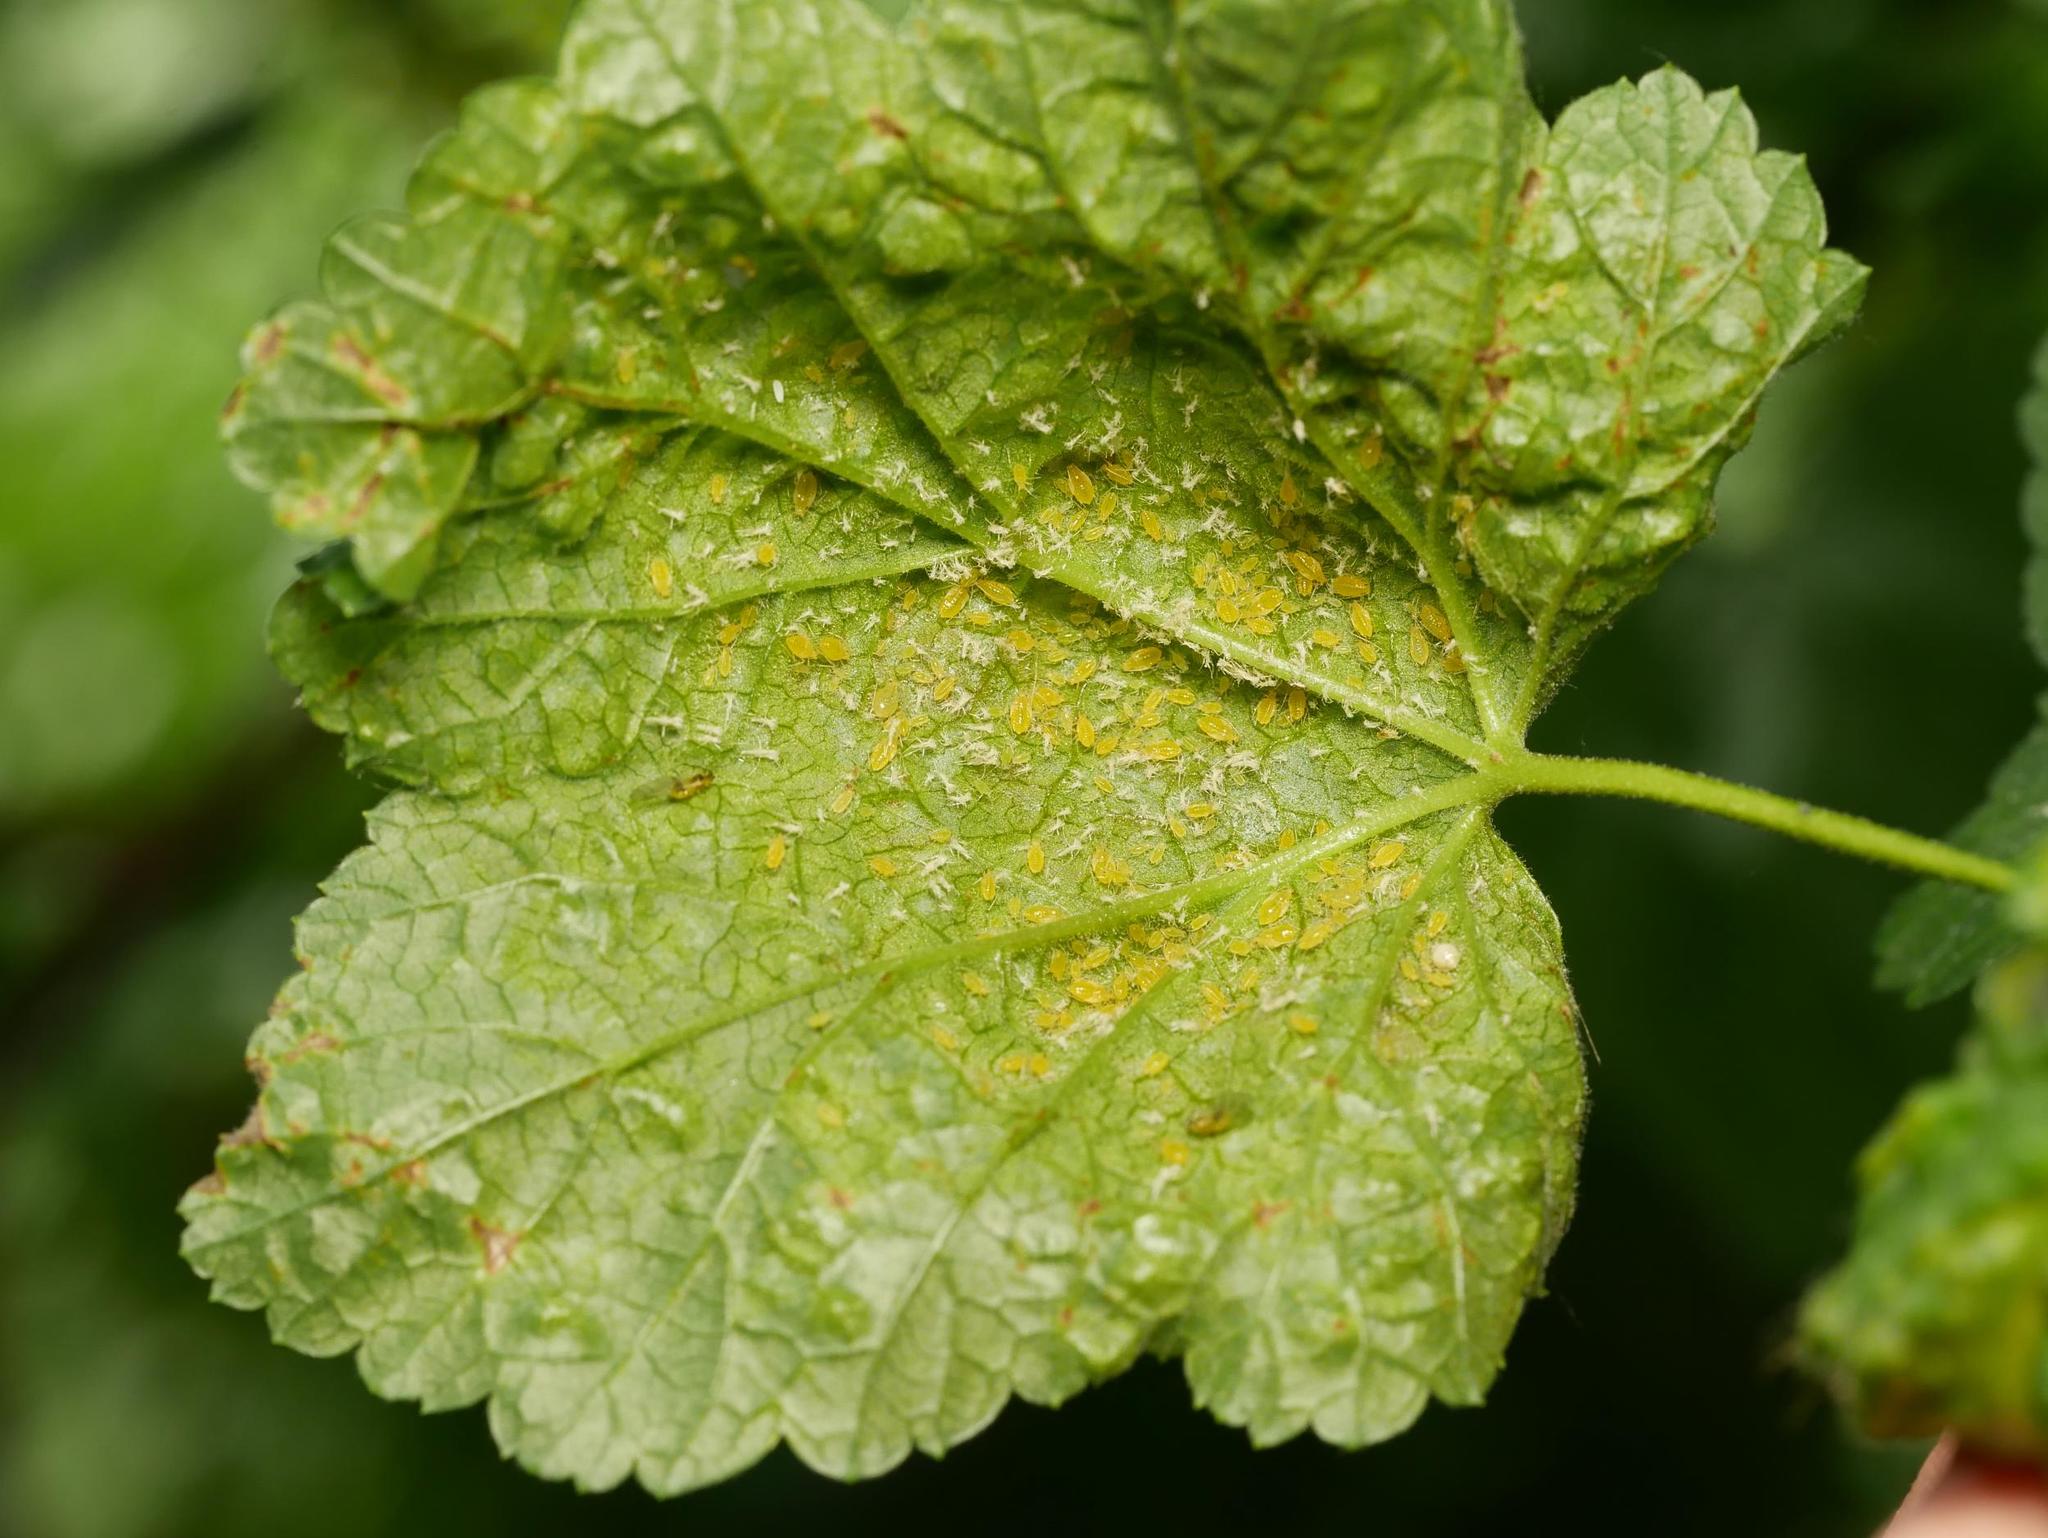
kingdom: Animalia
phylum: Arthropoda
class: Insecta
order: Hemiptera
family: Aphididae
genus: Cryptomyzus
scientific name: Cryptomyzus ribis
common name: Currant aphid
